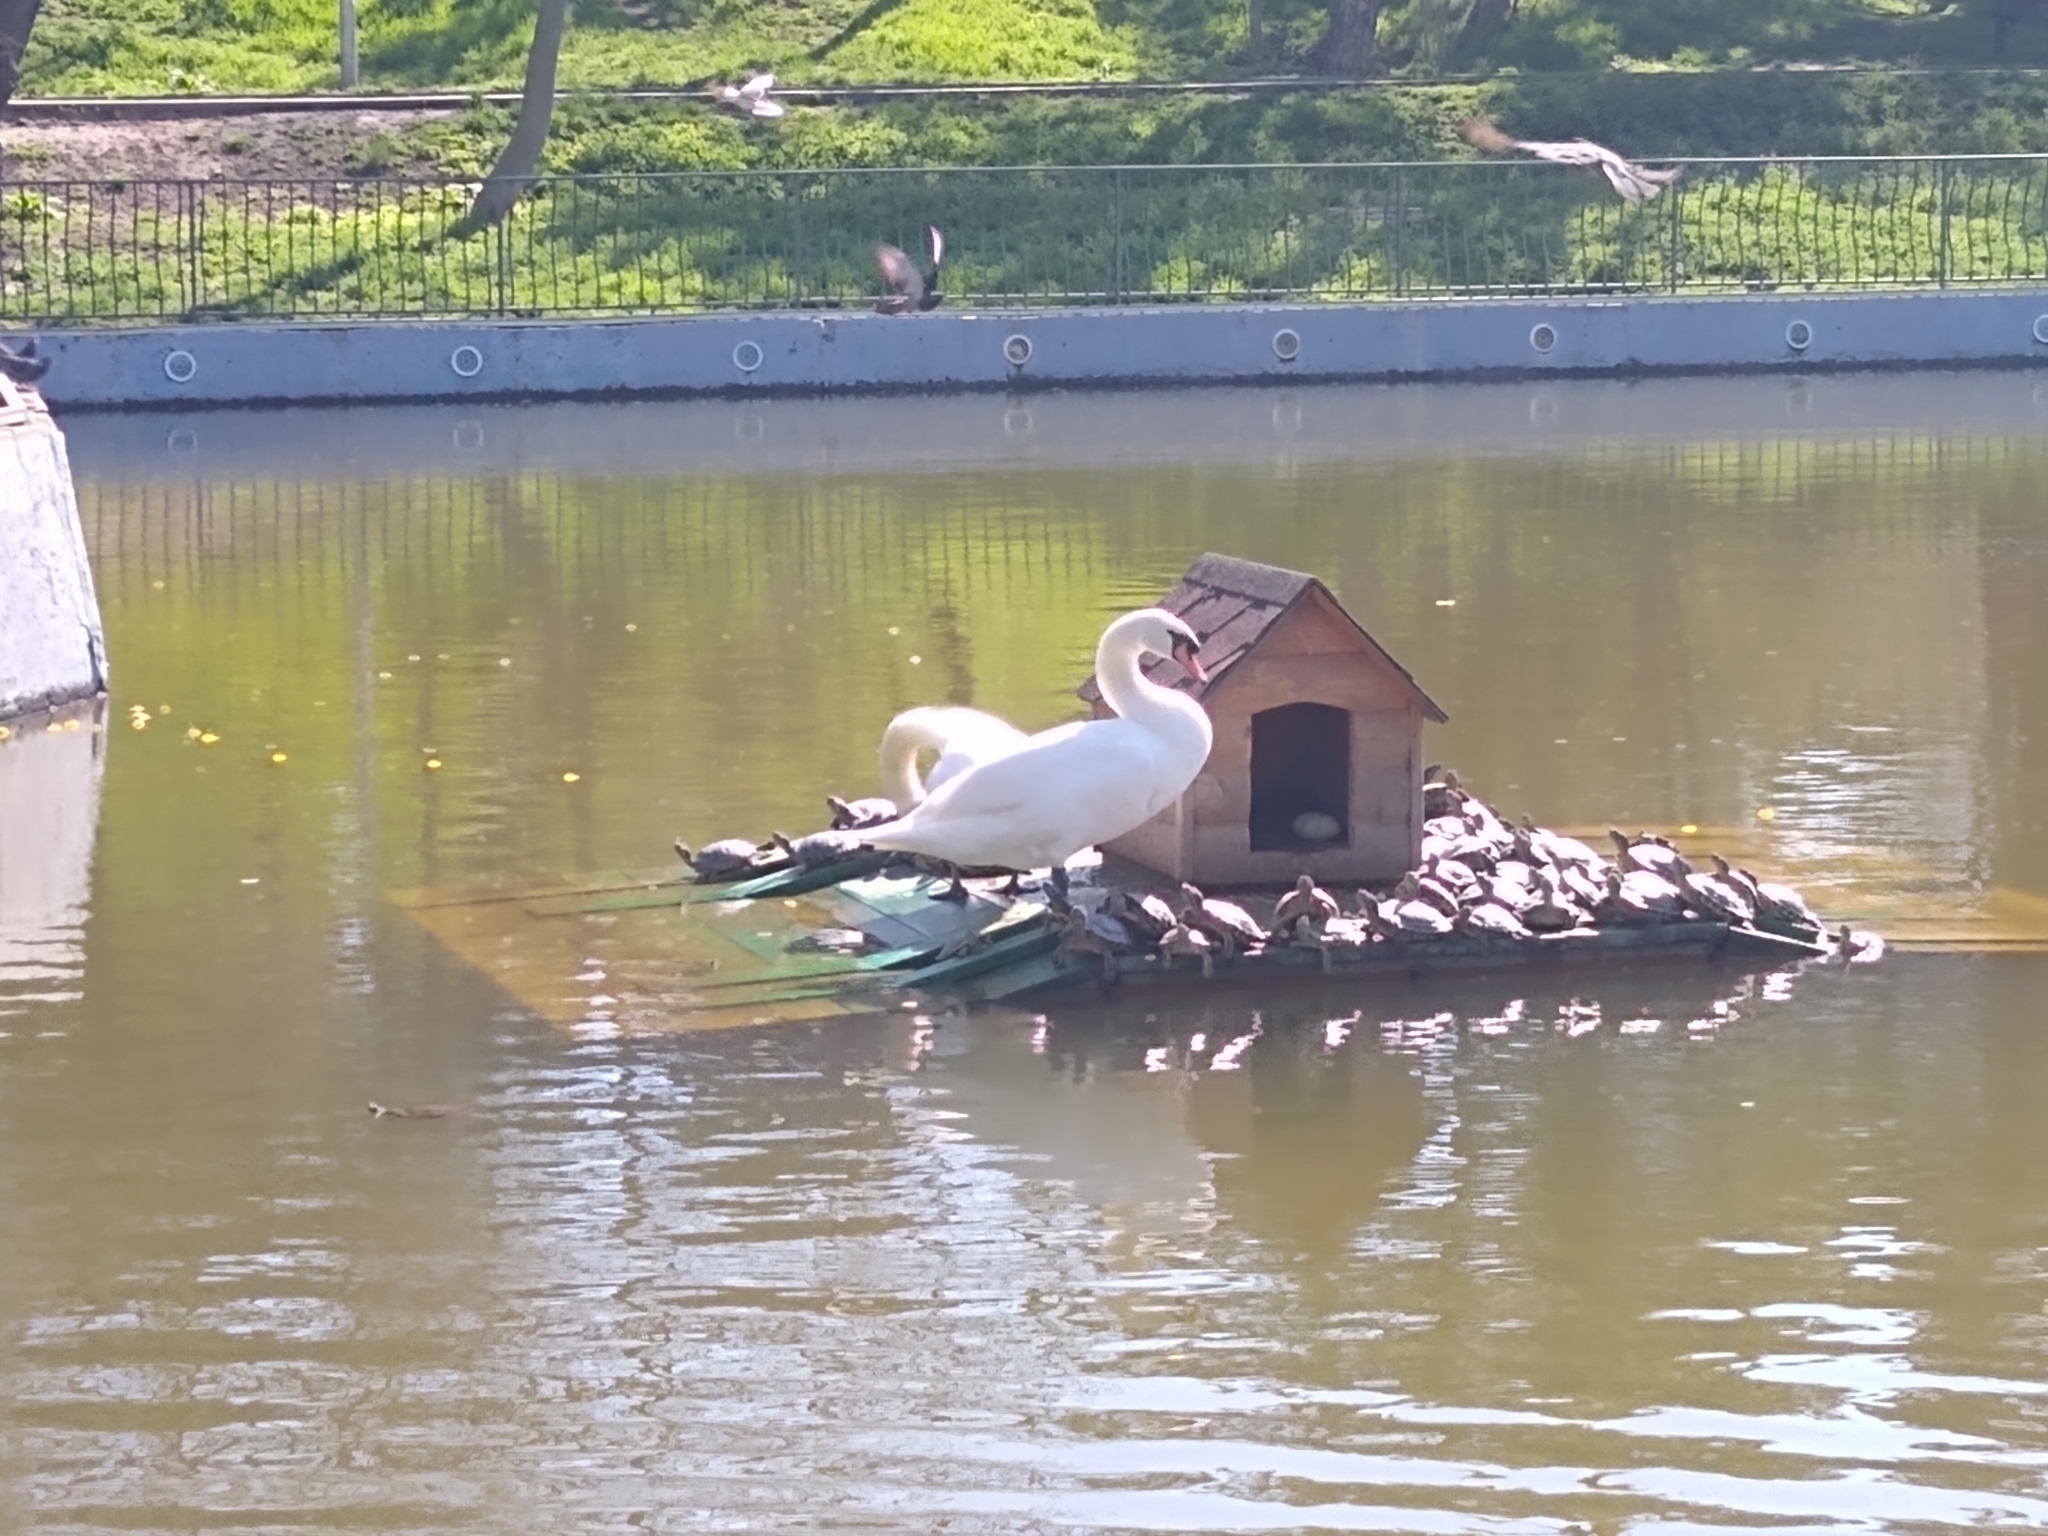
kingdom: Animalia
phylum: Chordata
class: Aves
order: Anseriformes
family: Anatidae
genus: Cygnus
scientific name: Cygnus olor
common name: Mute swan
